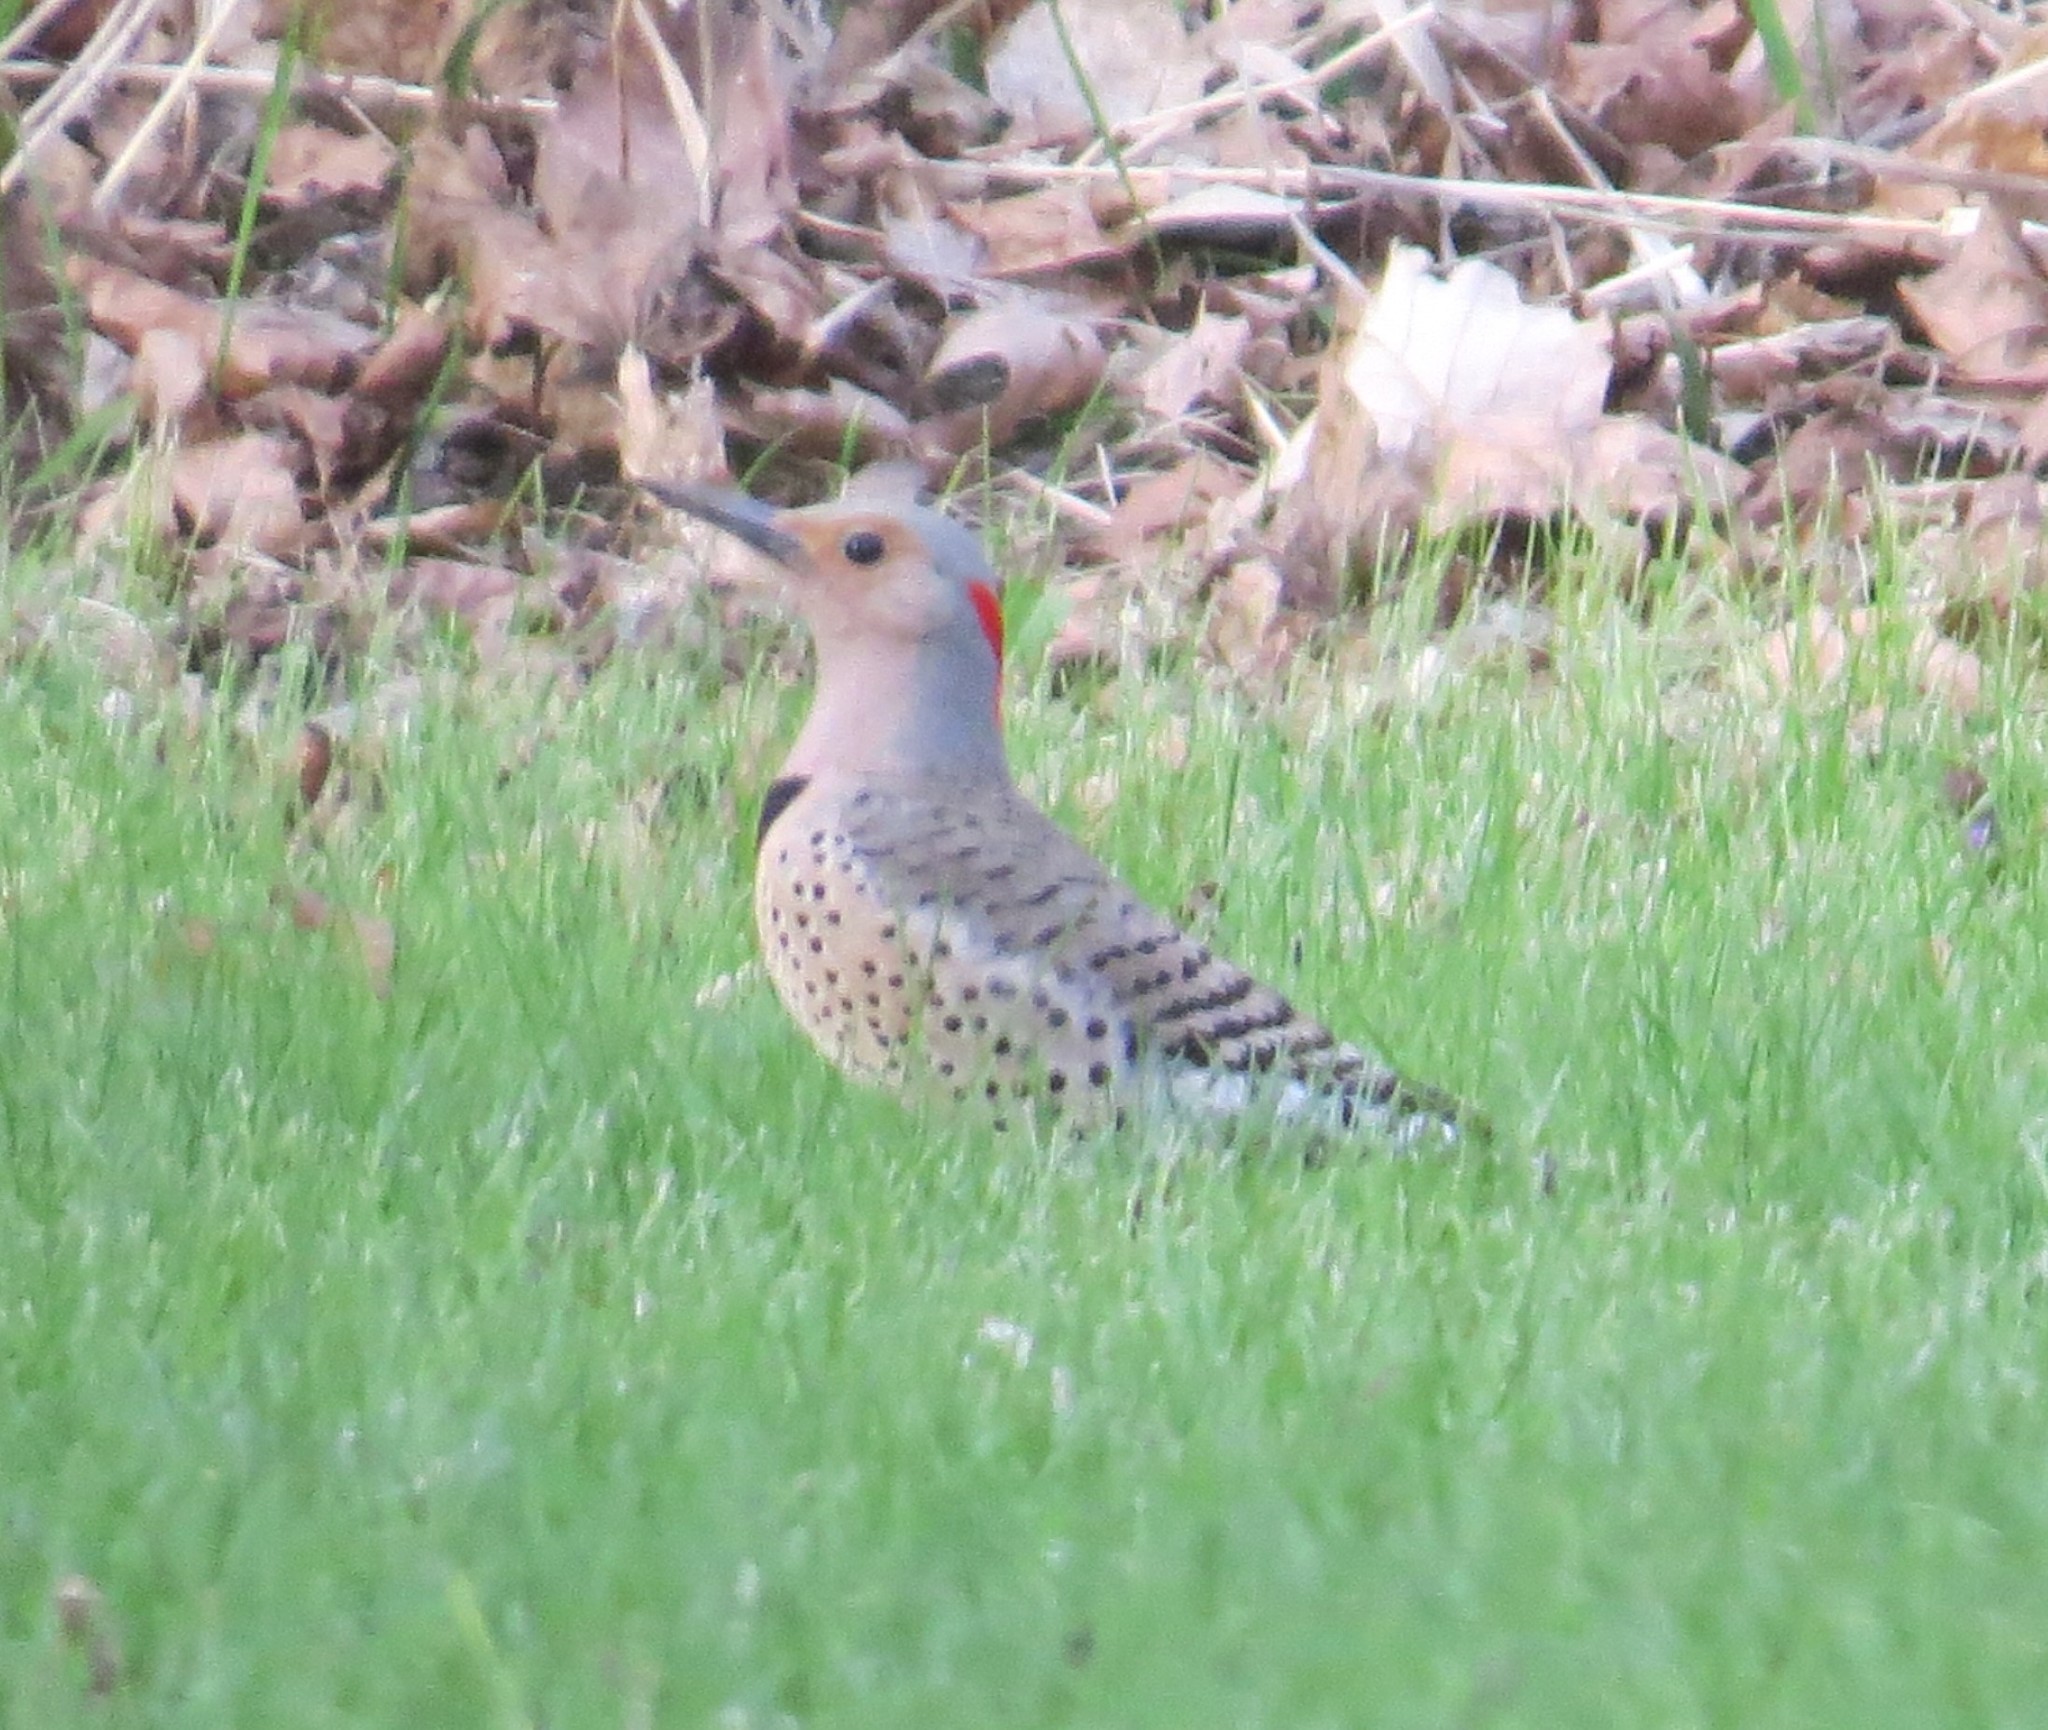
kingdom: Animalia
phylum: Chordata
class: Aves
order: Piciformes
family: Picidae
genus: Colaptes
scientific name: Colaptes auratus
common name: Northern flicker
